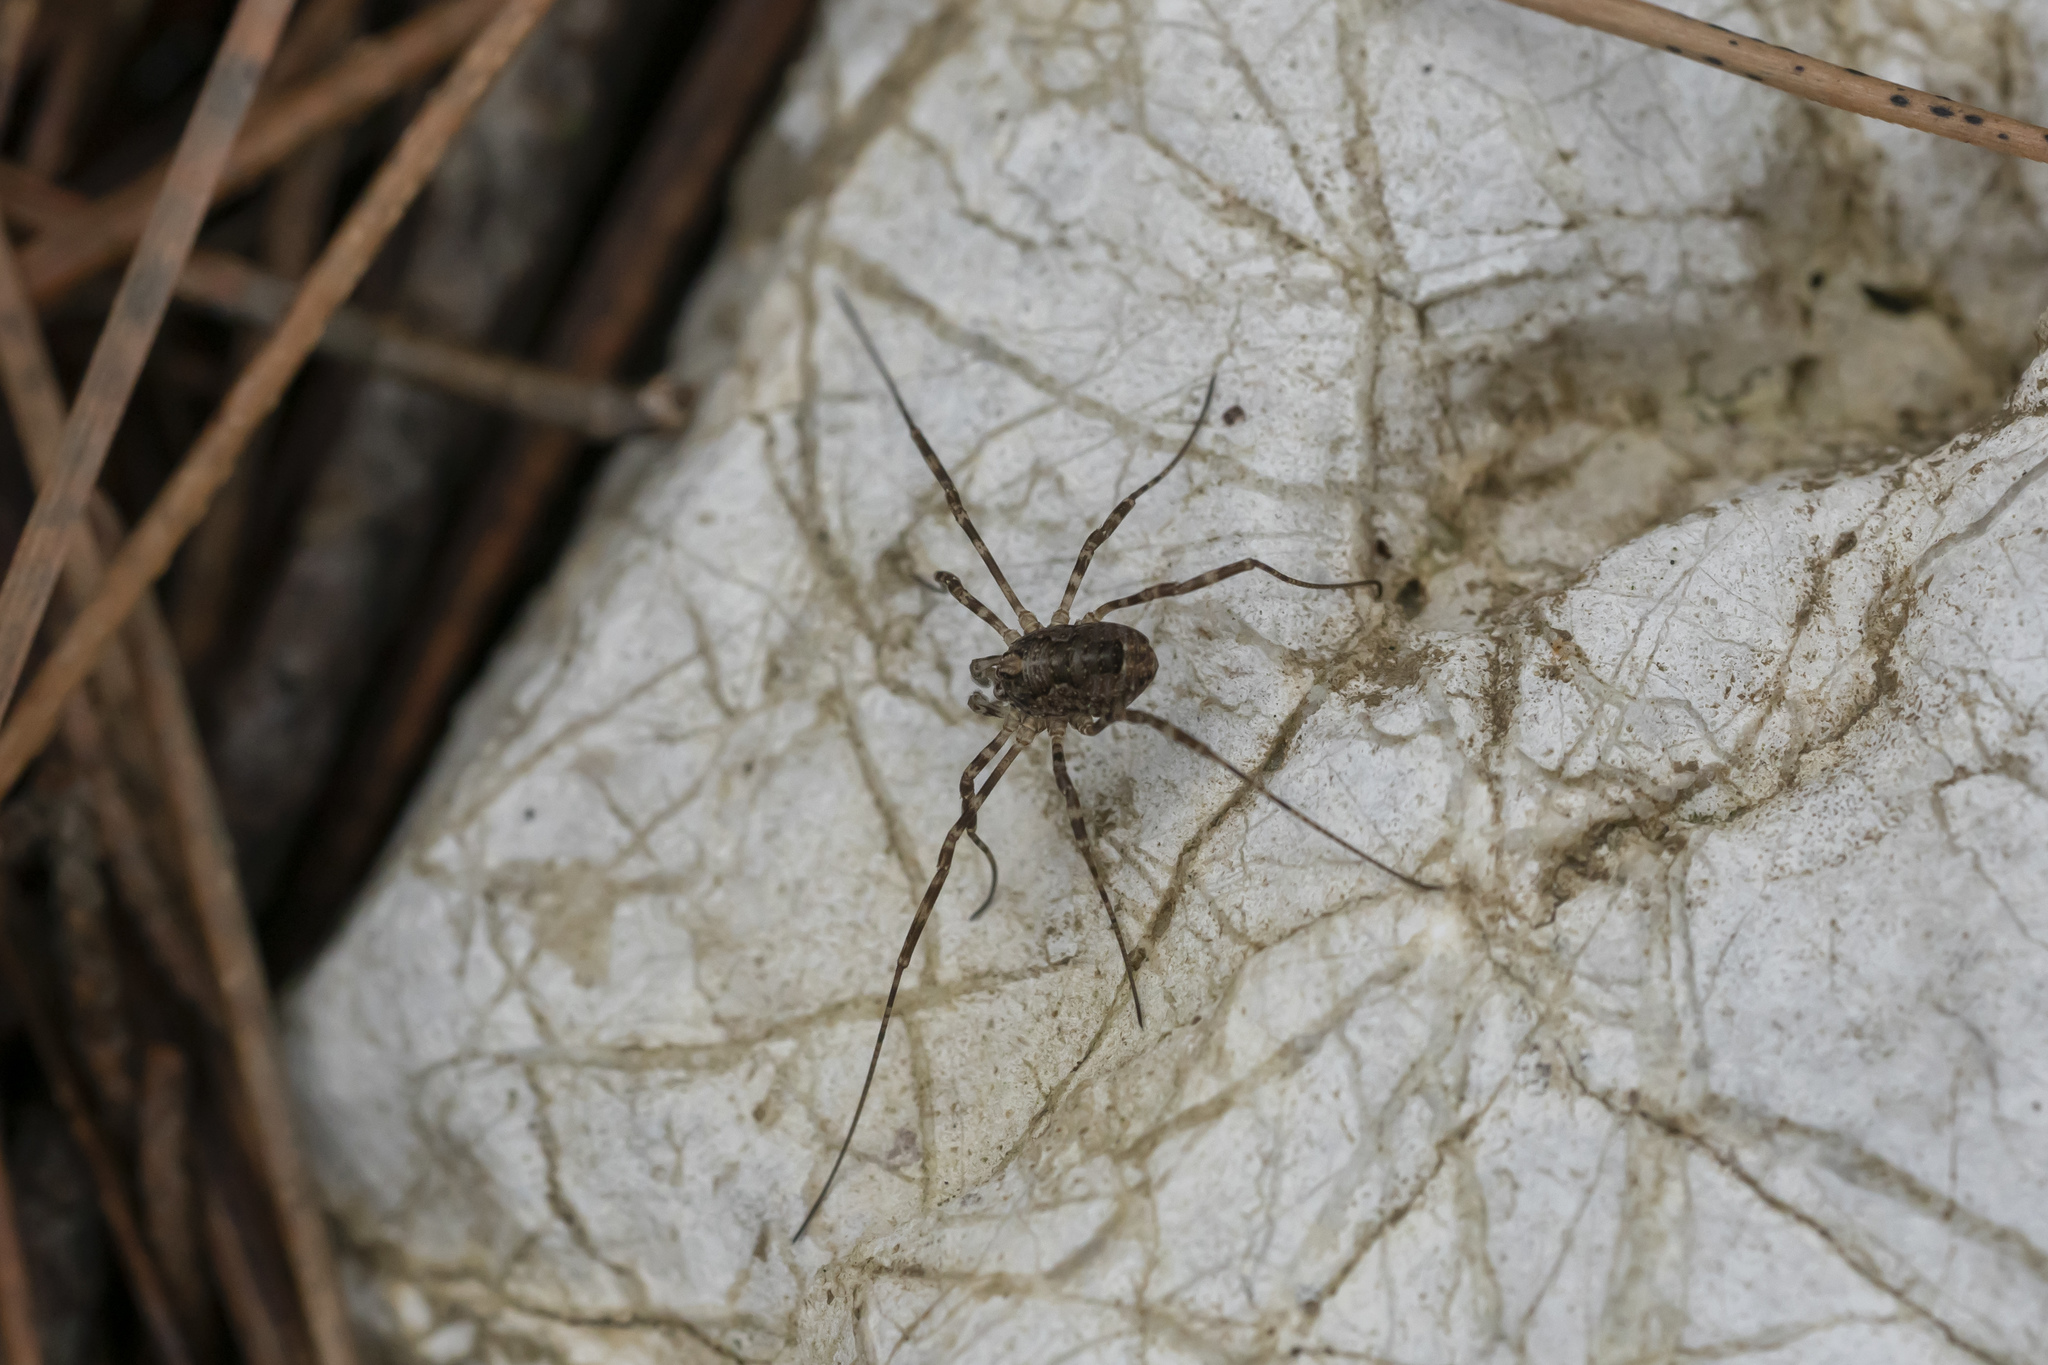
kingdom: Animalia
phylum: Arthropoda
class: Arachnida
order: Opiliones
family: Phalangiidae
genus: Rafalskia
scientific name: Rafalskia cretica
